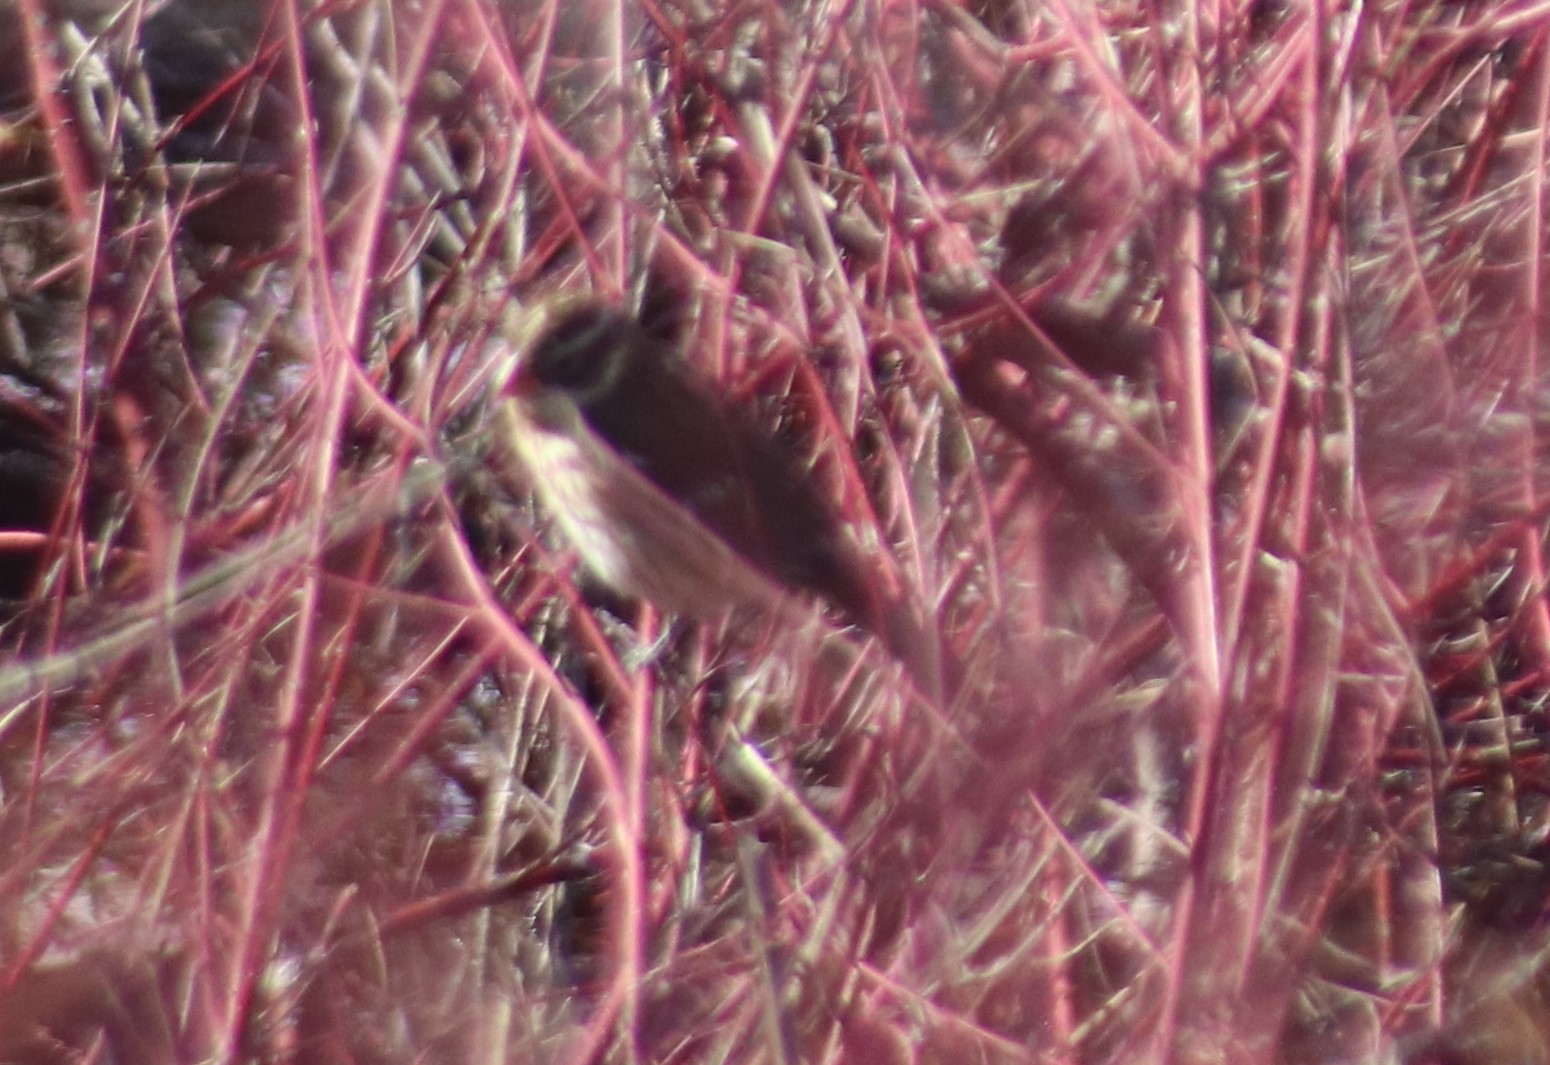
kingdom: Animalia
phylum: Chordata
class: Aves
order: Passeriformes
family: Cardinalidae
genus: Pheucticus
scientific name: Pheucticus ludovicianus
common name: Rose-breasted grosbeak
